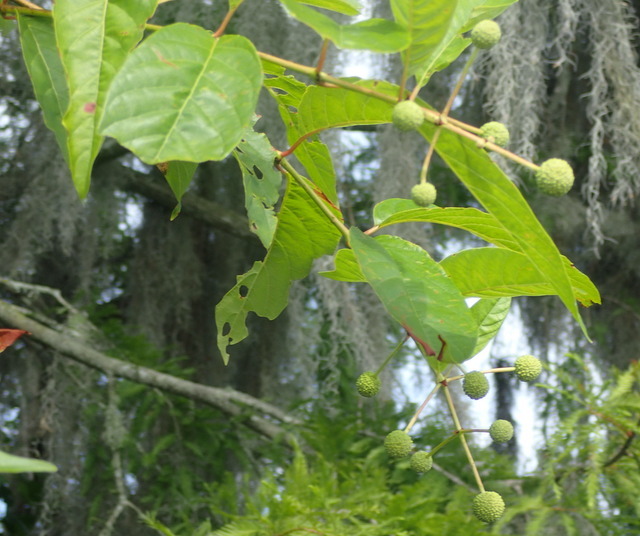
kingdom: Plantae
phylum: Tracheophyta
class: Magnoliopsida
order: Gentianales
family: Rubiaceae
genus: Cephalanthus
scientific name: Cephalanthus occidentalis
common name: Button-willow
